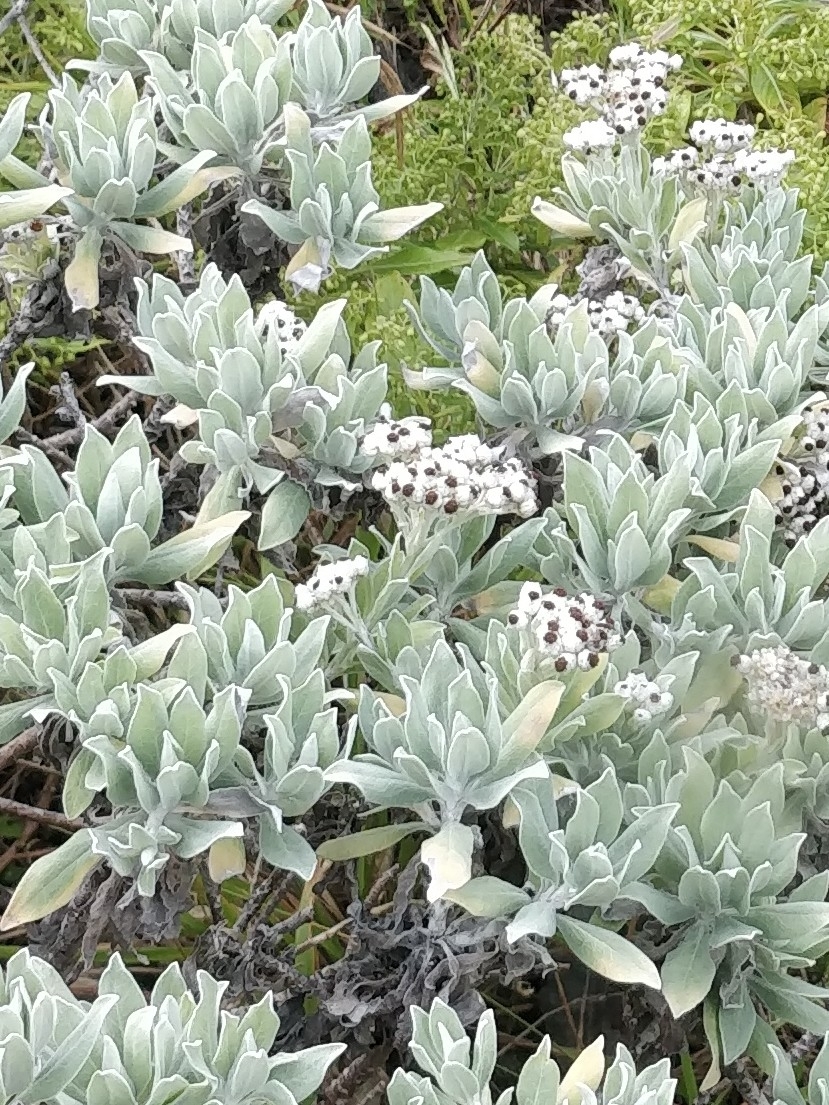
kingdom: Plantae
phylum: Tracheophyta
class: Magnoliopsida
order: Asterales
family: Asteraceae
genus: Helichrysum
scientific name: Helichrysum melaleucum
